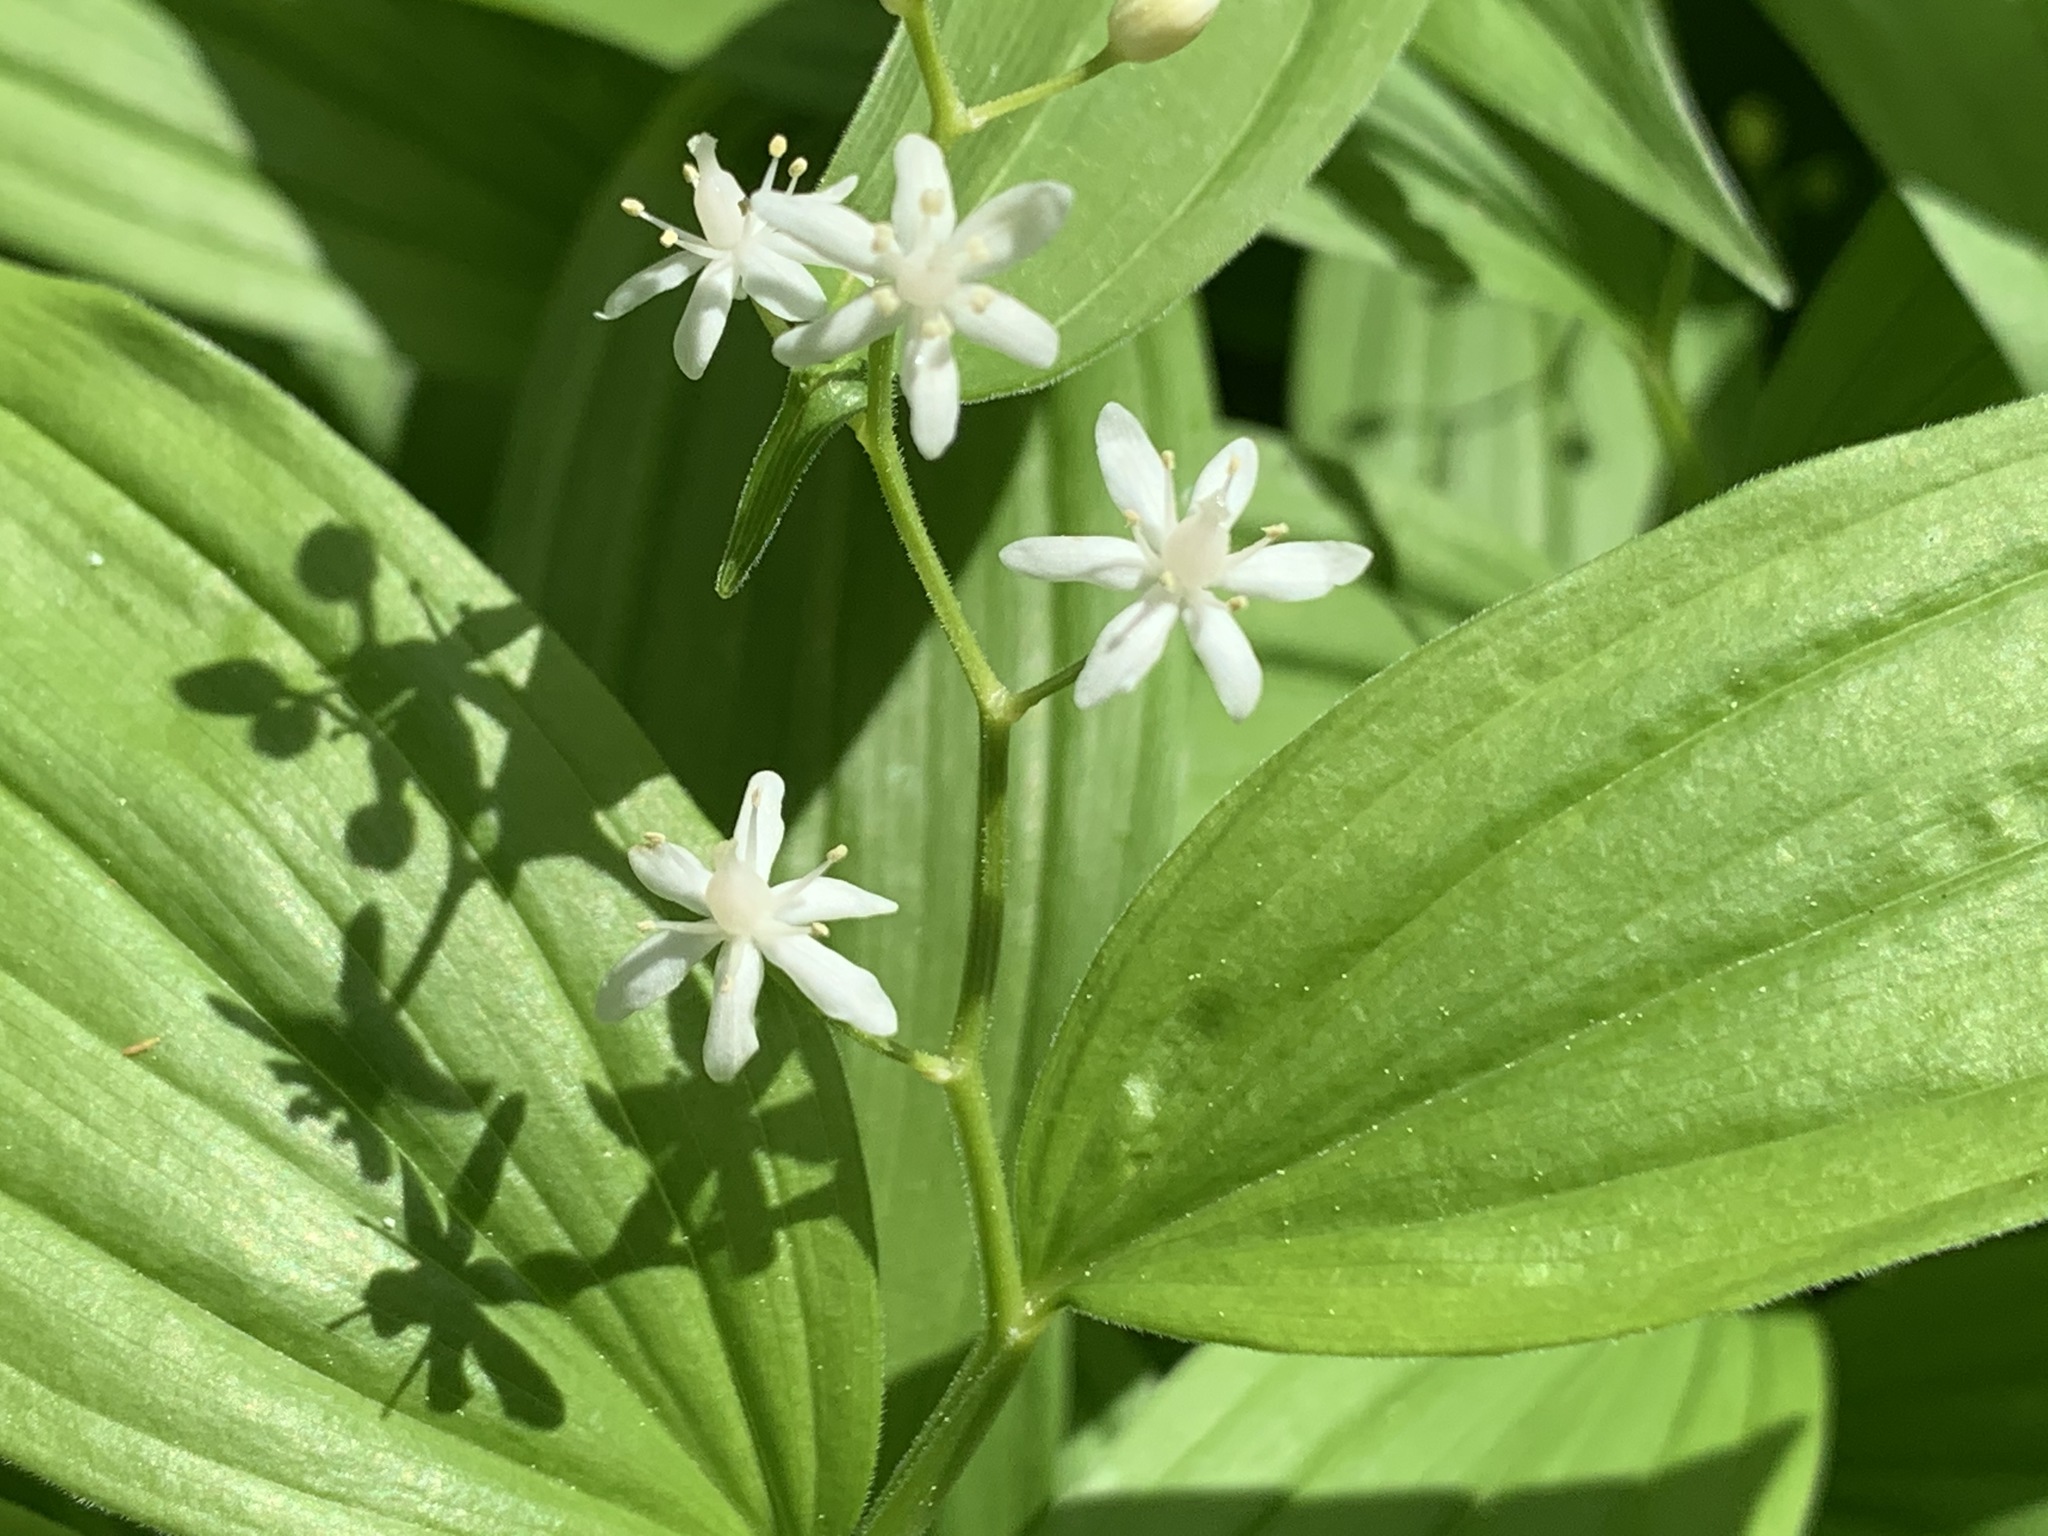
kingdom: Plantae
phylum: Tracheophyta
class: Liliopsida
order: Asparagales
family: Asparagaceae
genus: Maianthemum
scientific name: Maianthemum stellatum
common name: Little false solomon's seal
